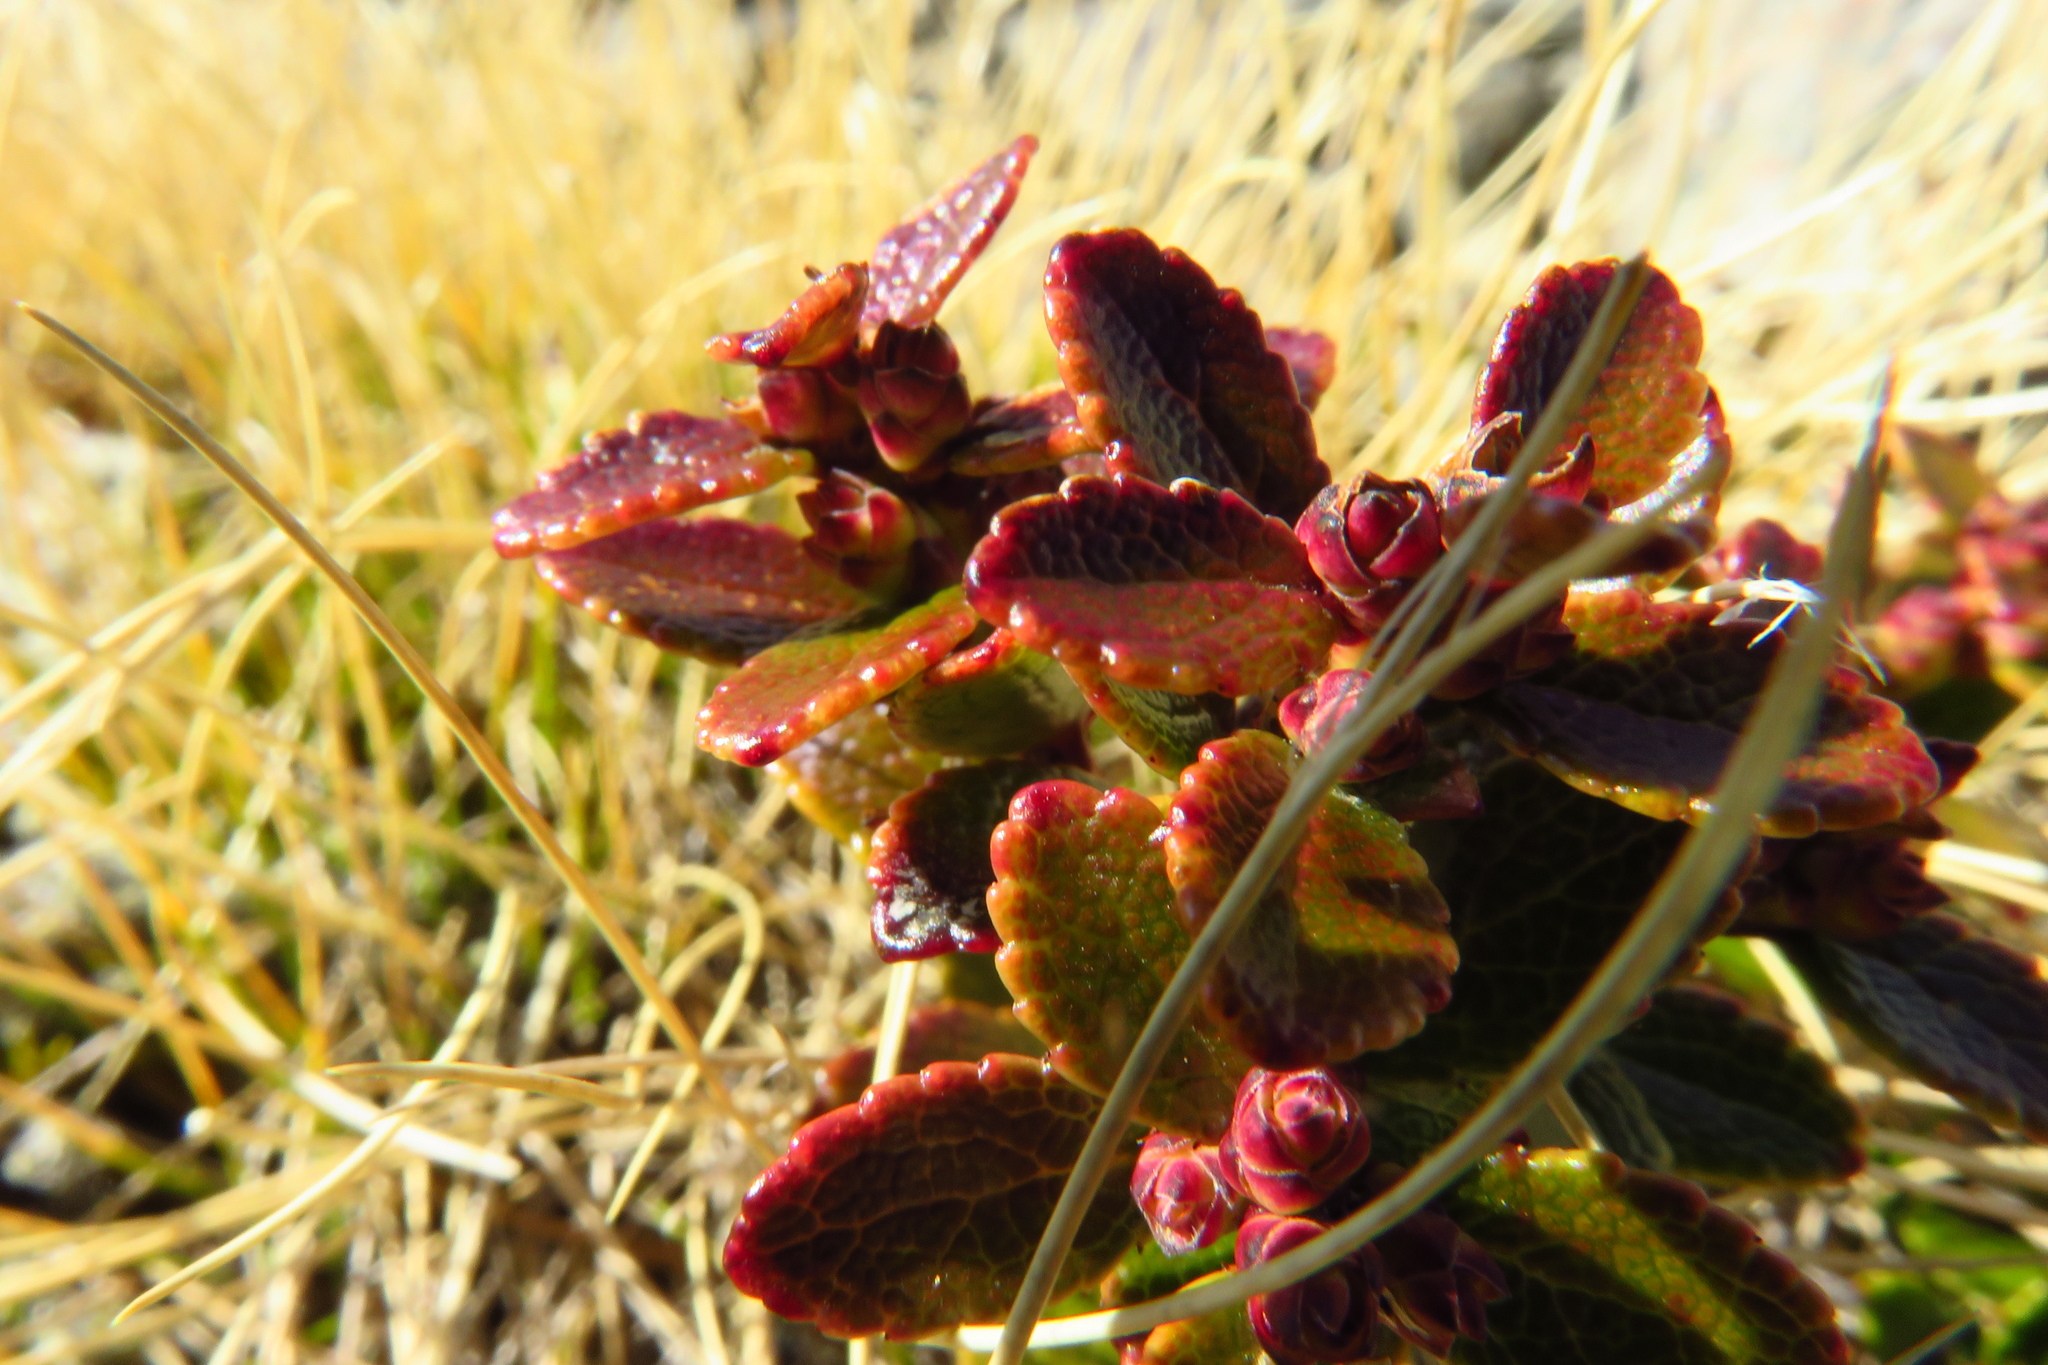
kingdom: Plantae
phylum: Tracheophyta
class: Magnoliopsida
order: Ericales
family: Ericaceae
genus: Gaultheria
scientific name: Gaultheria depressa
